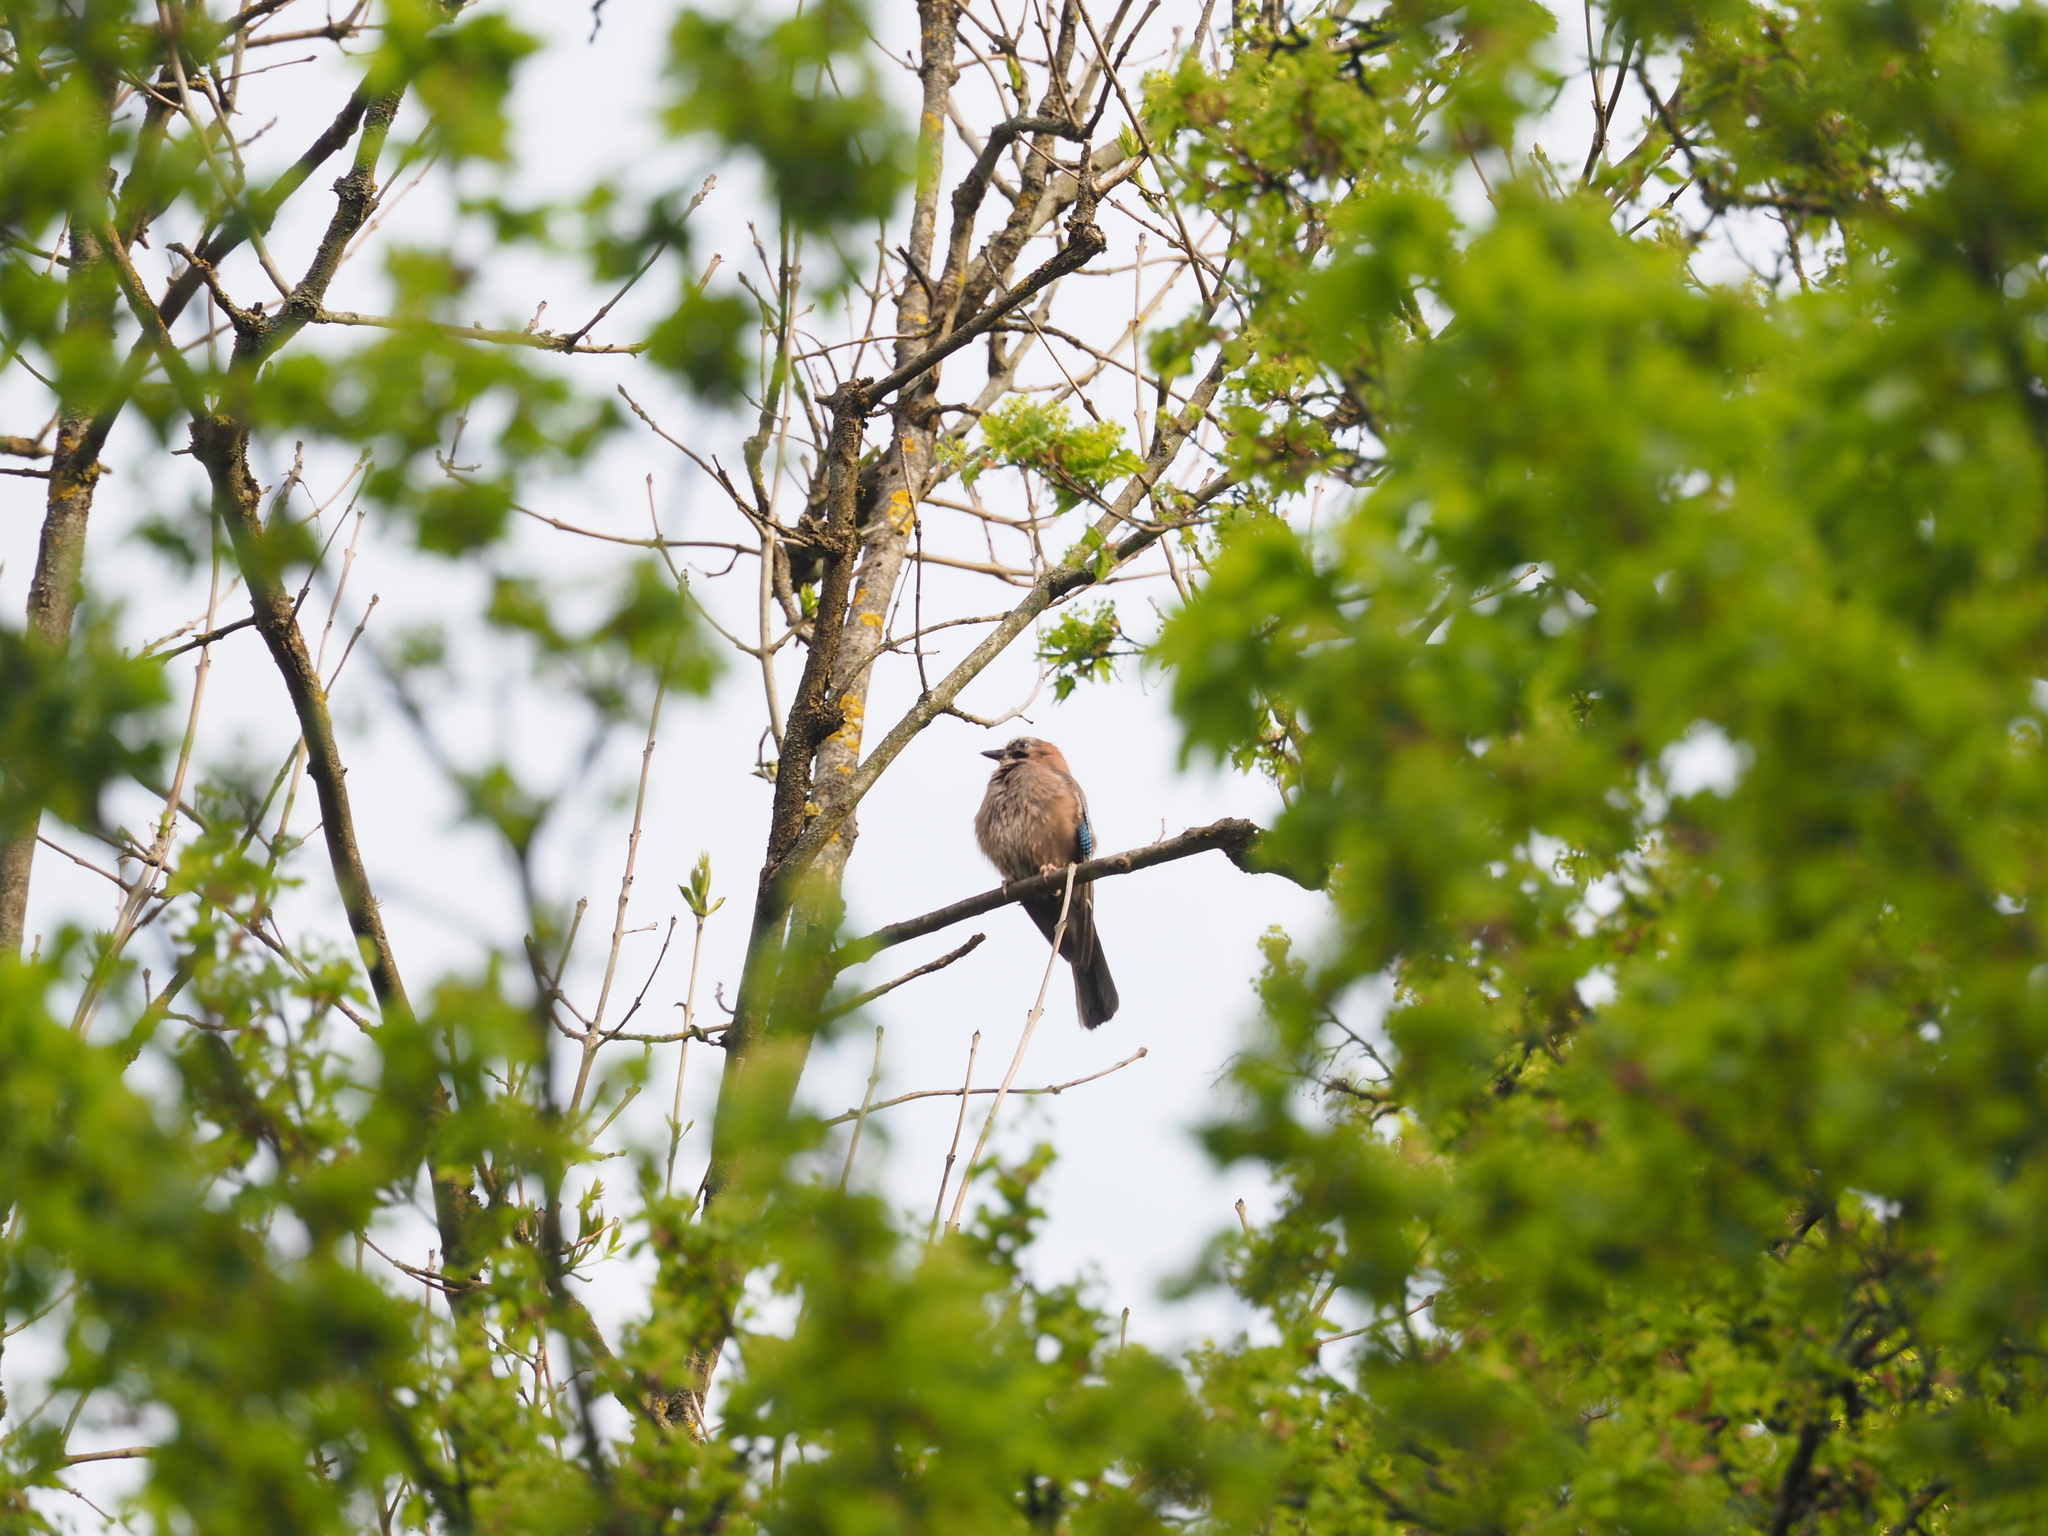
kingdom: Animalia
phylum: Chordata
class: Aves
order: Passeriformes
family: Corvidae
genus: Garrulus
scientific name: Garrulus glandarius
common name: Eurasian jay
